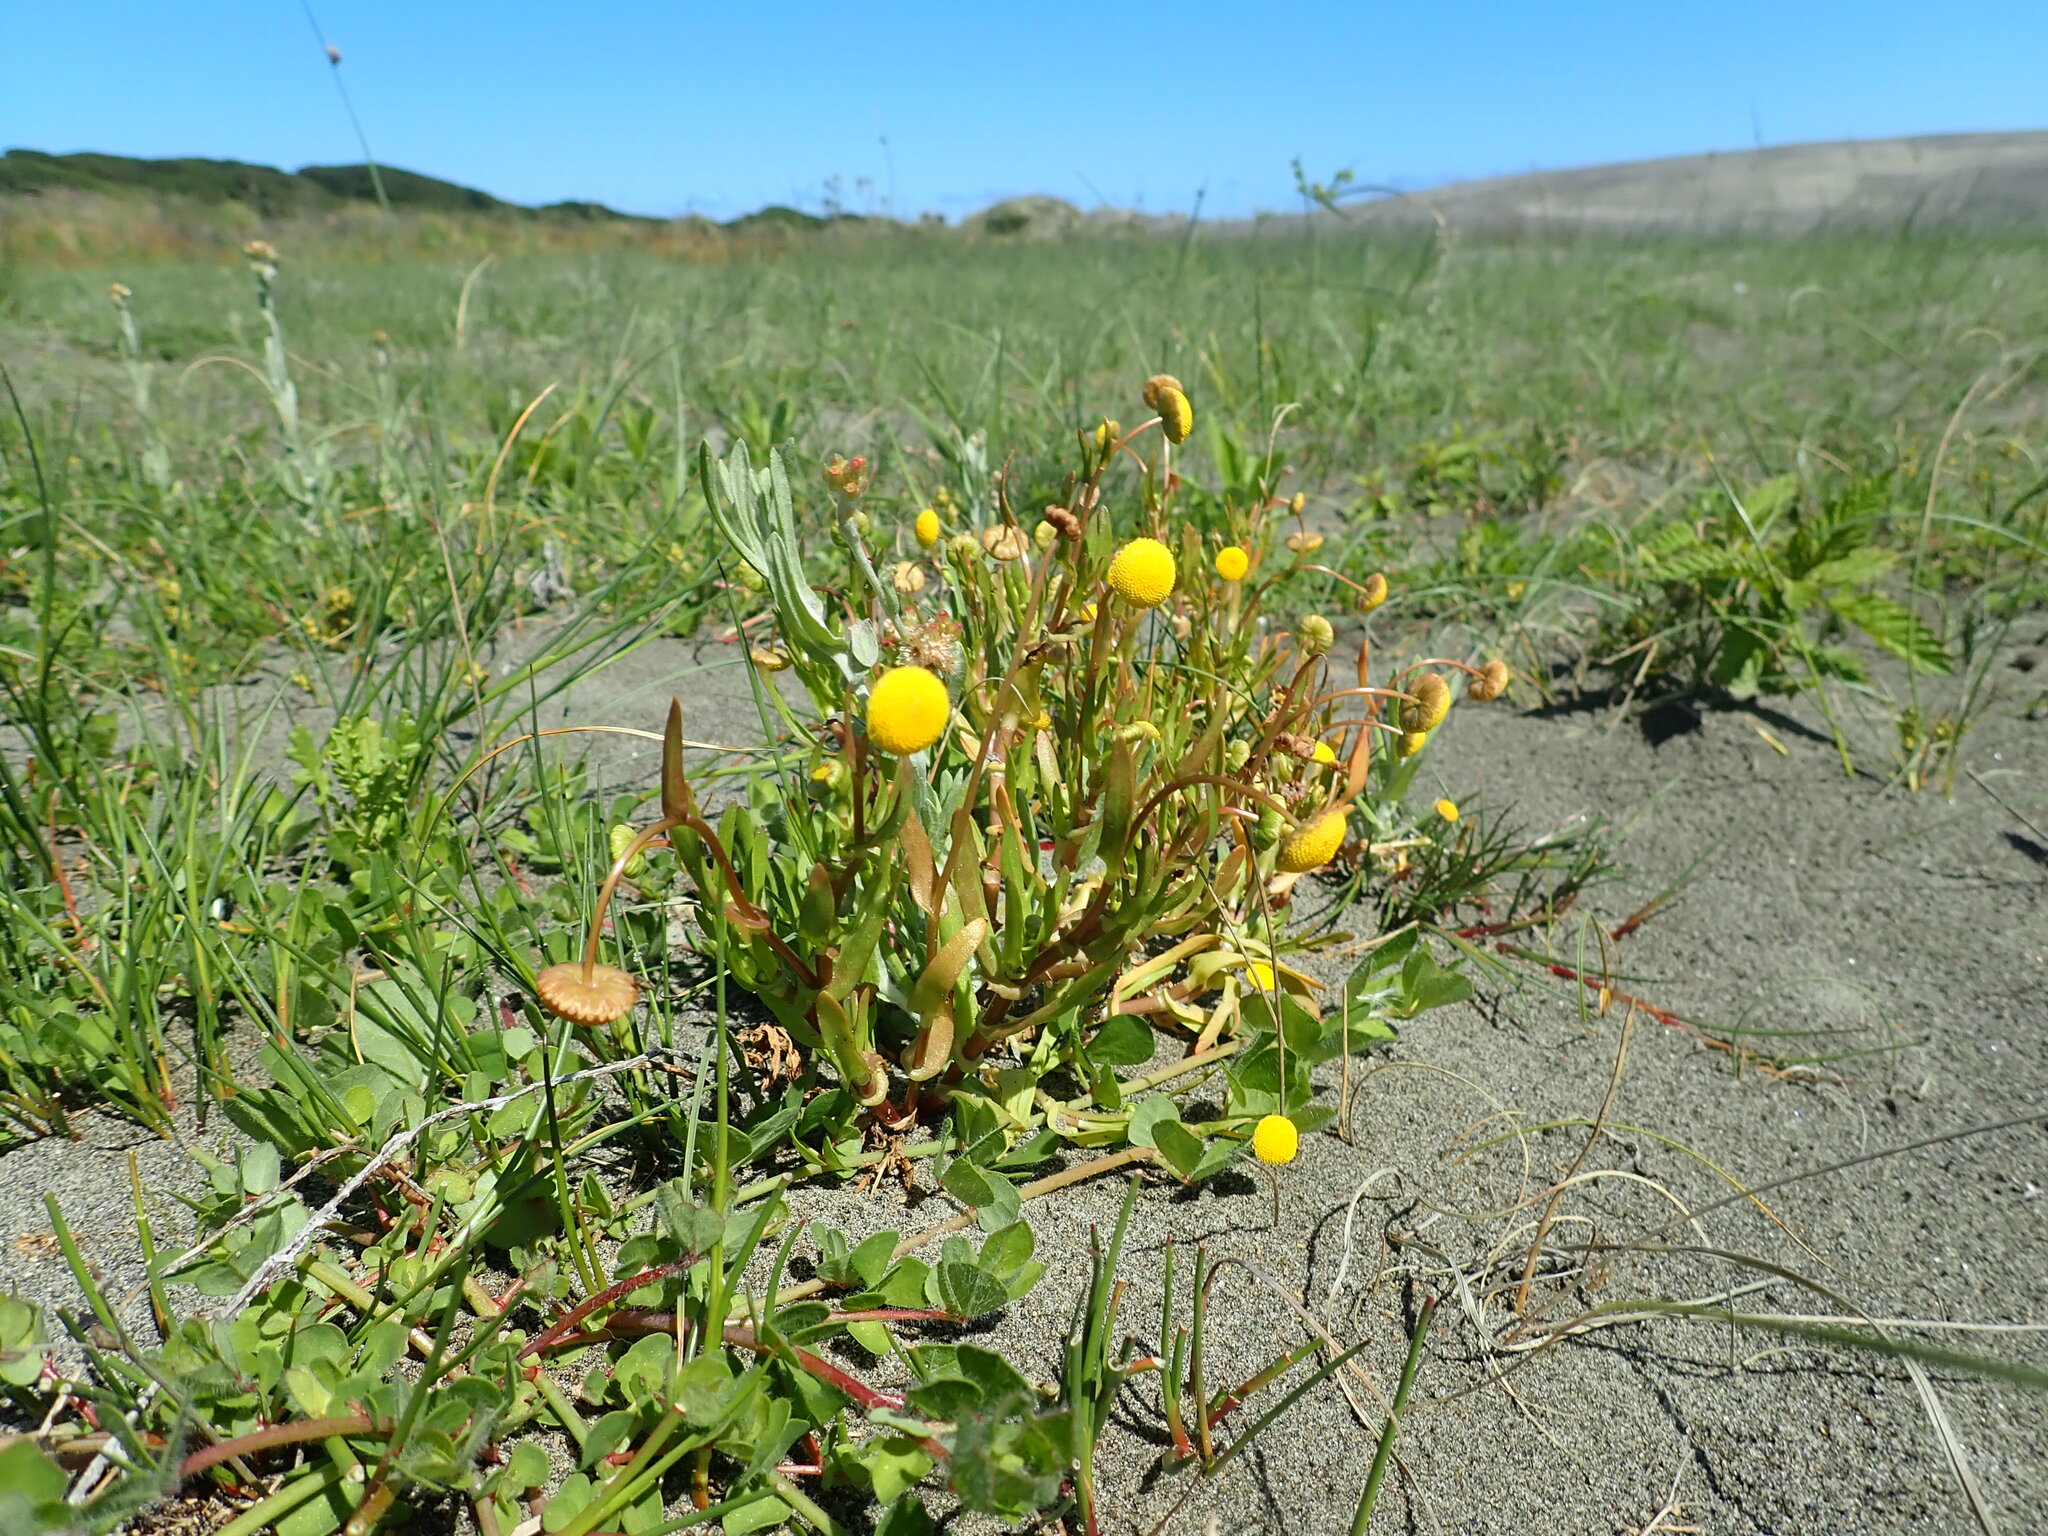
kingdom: Plantae
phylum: Tracheophyta
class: Magnoliopsida
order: Asterales
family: Asteraceae
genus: Cotula
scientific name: Cotula coronopifolia
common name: Buttonweed
